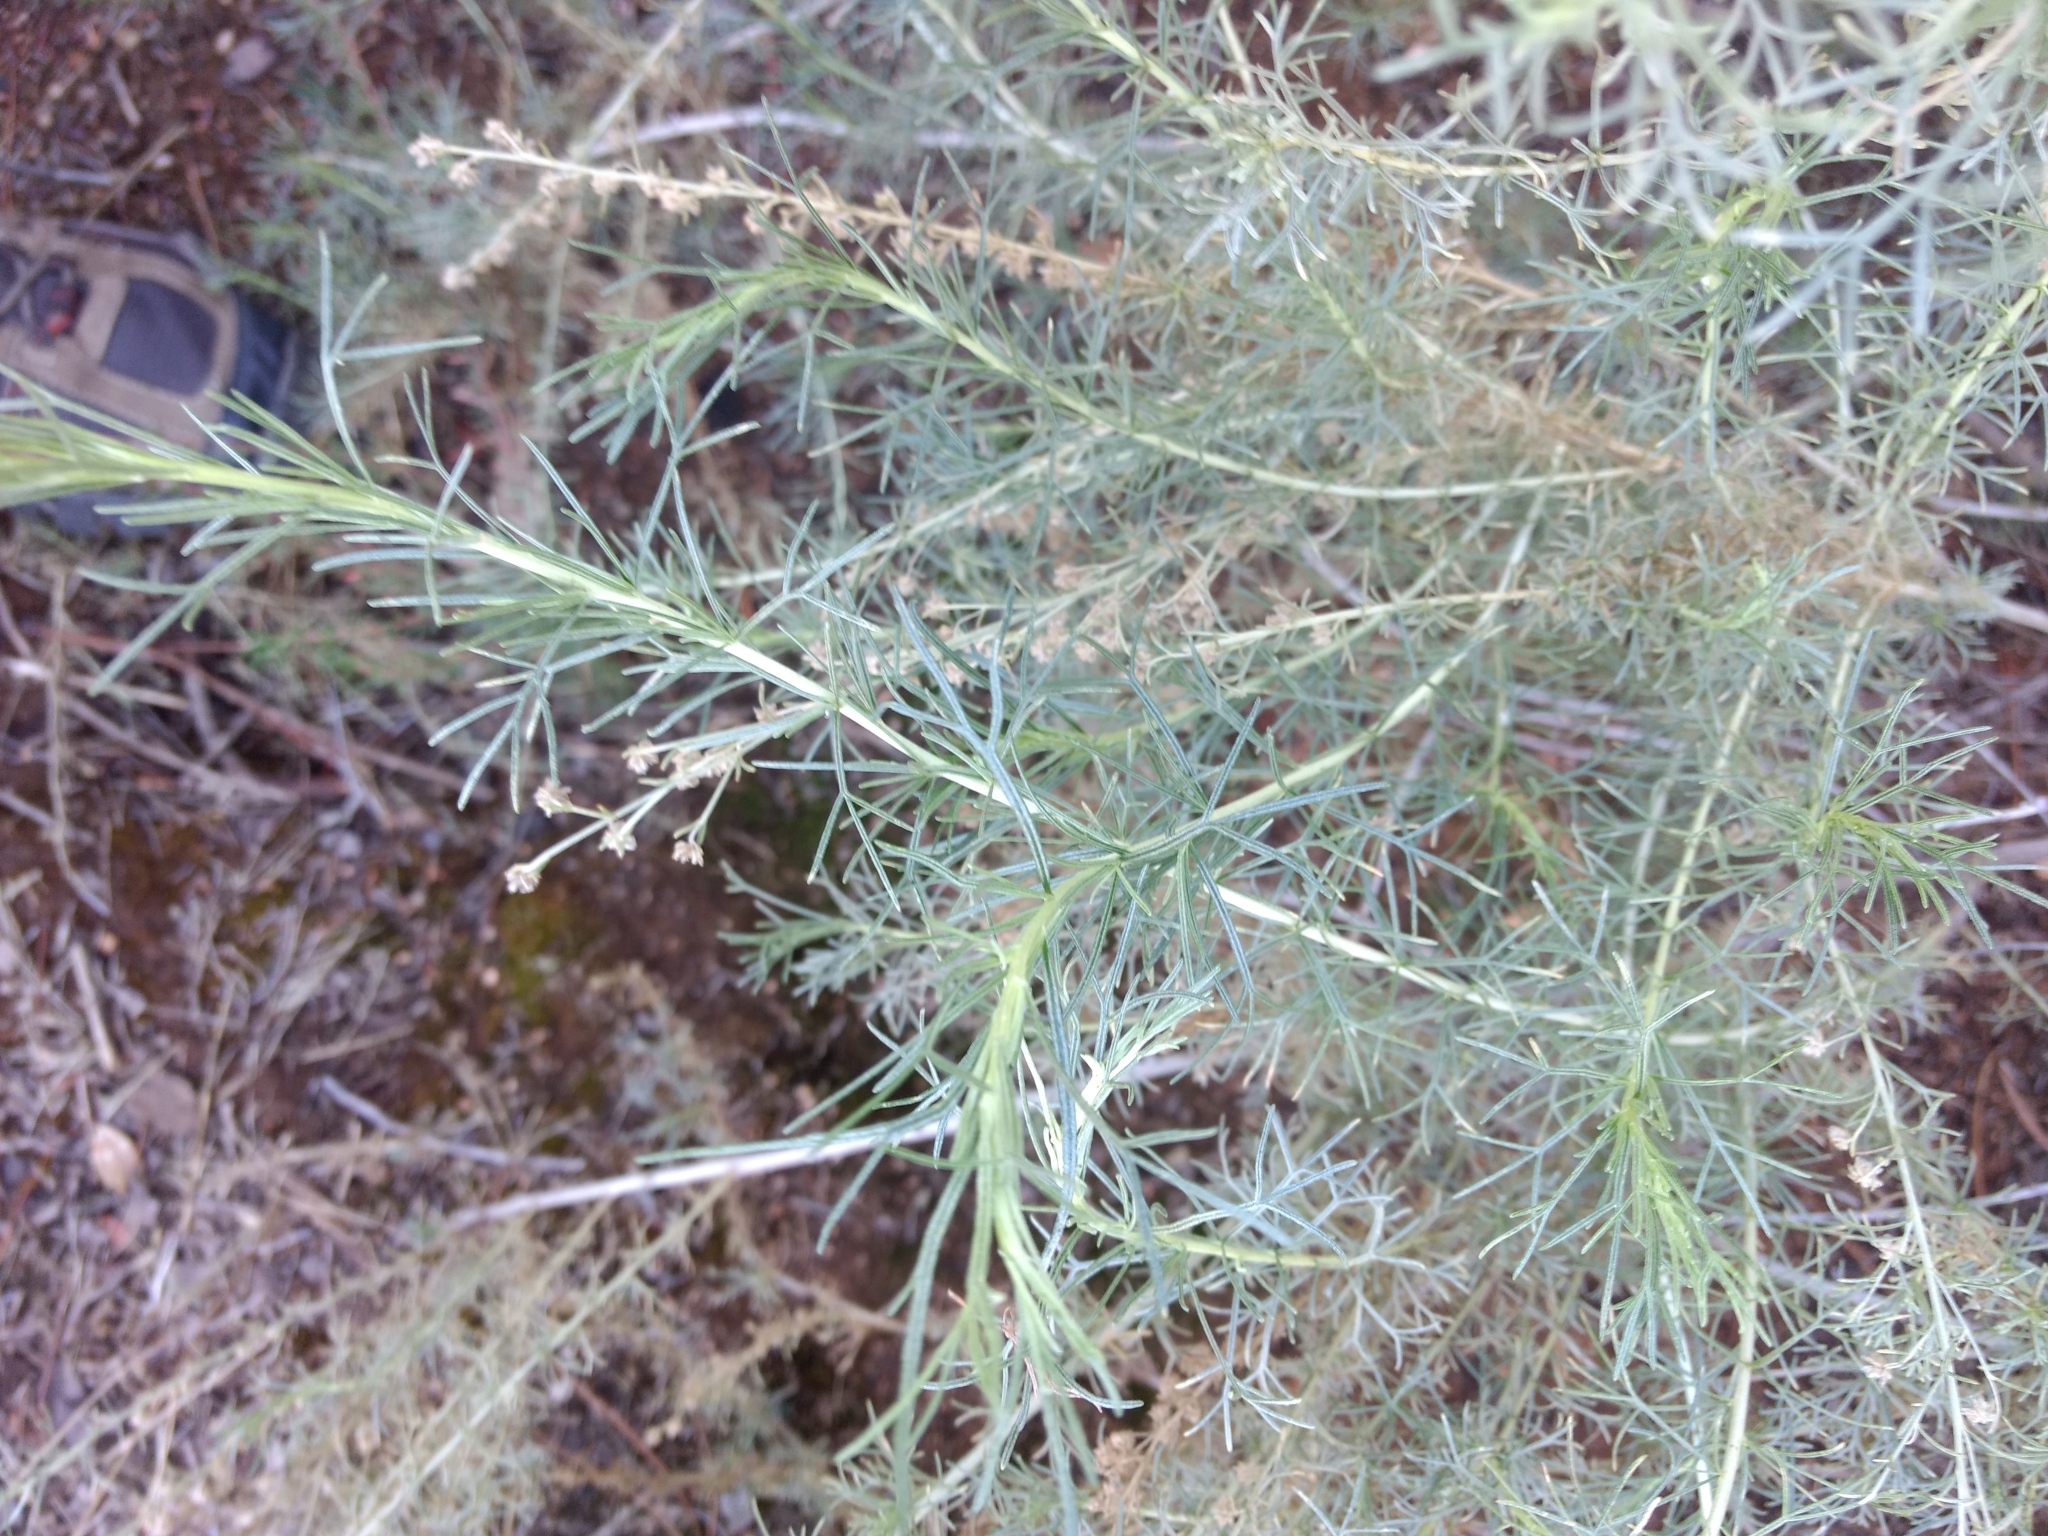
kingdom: Plantae
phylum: Tracheophyta
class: Magnoliopsida
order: Asterales
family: Asteraceae
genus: Artemisia
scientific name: Artemisia californica
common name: California sagebrush
